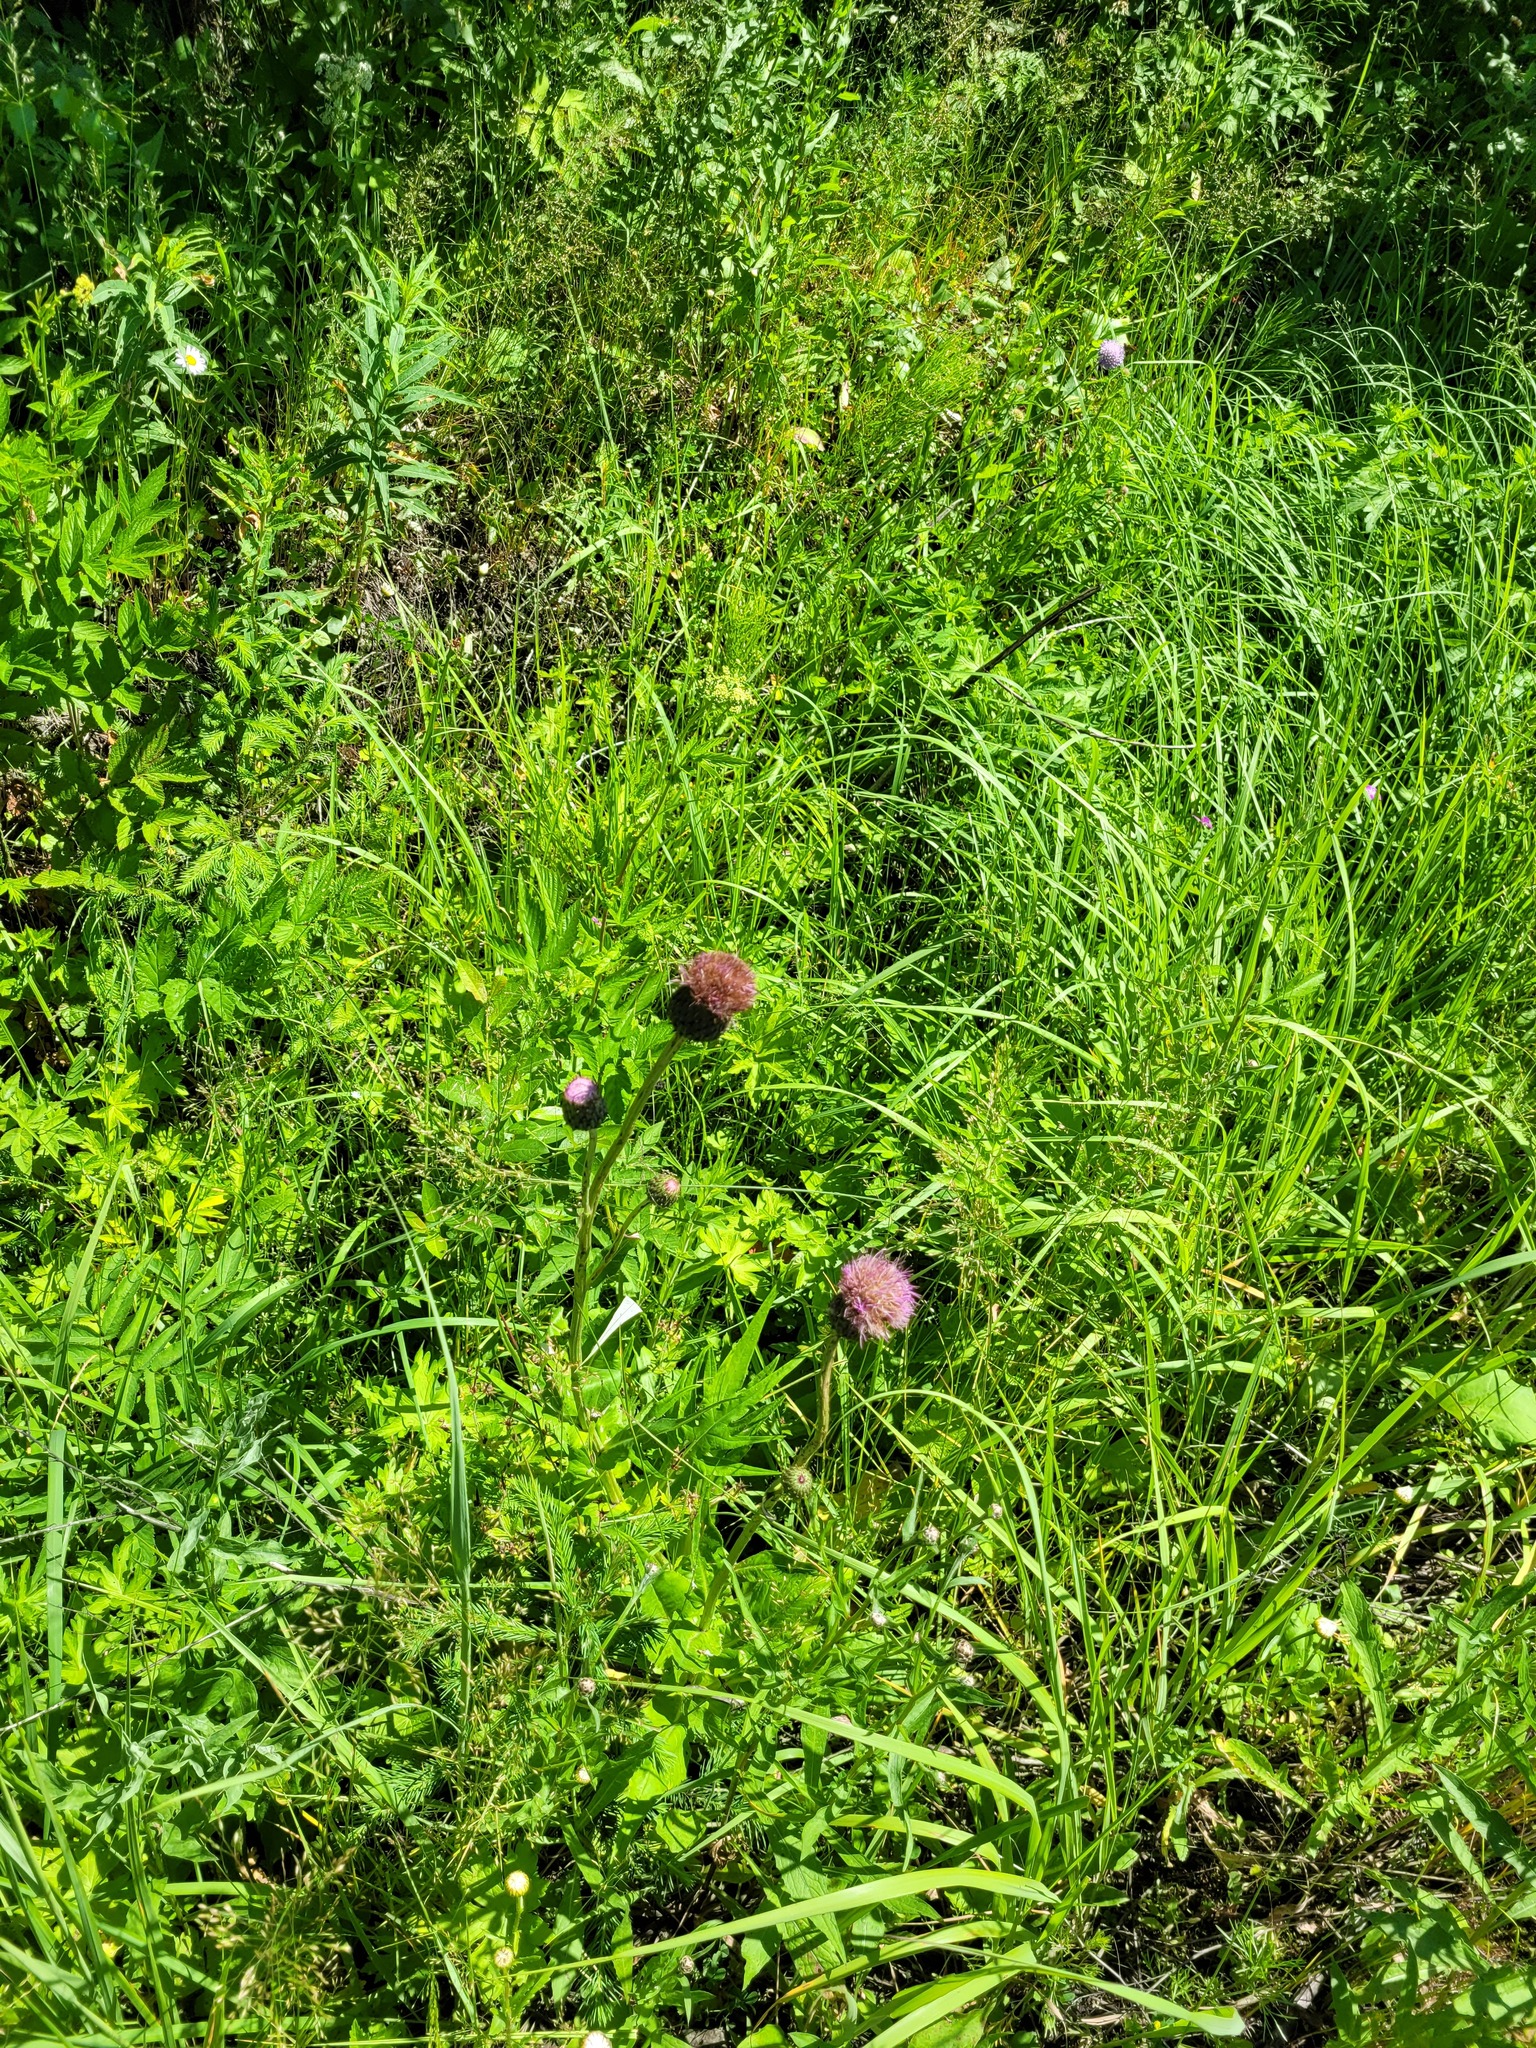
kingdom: Plantae
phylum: Tracheophyta
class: Magnoliopsida
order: Asterales
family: Asteraceae
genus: Cirsium
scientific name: Cirsium heterophyllum
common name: Melancholy thistle
